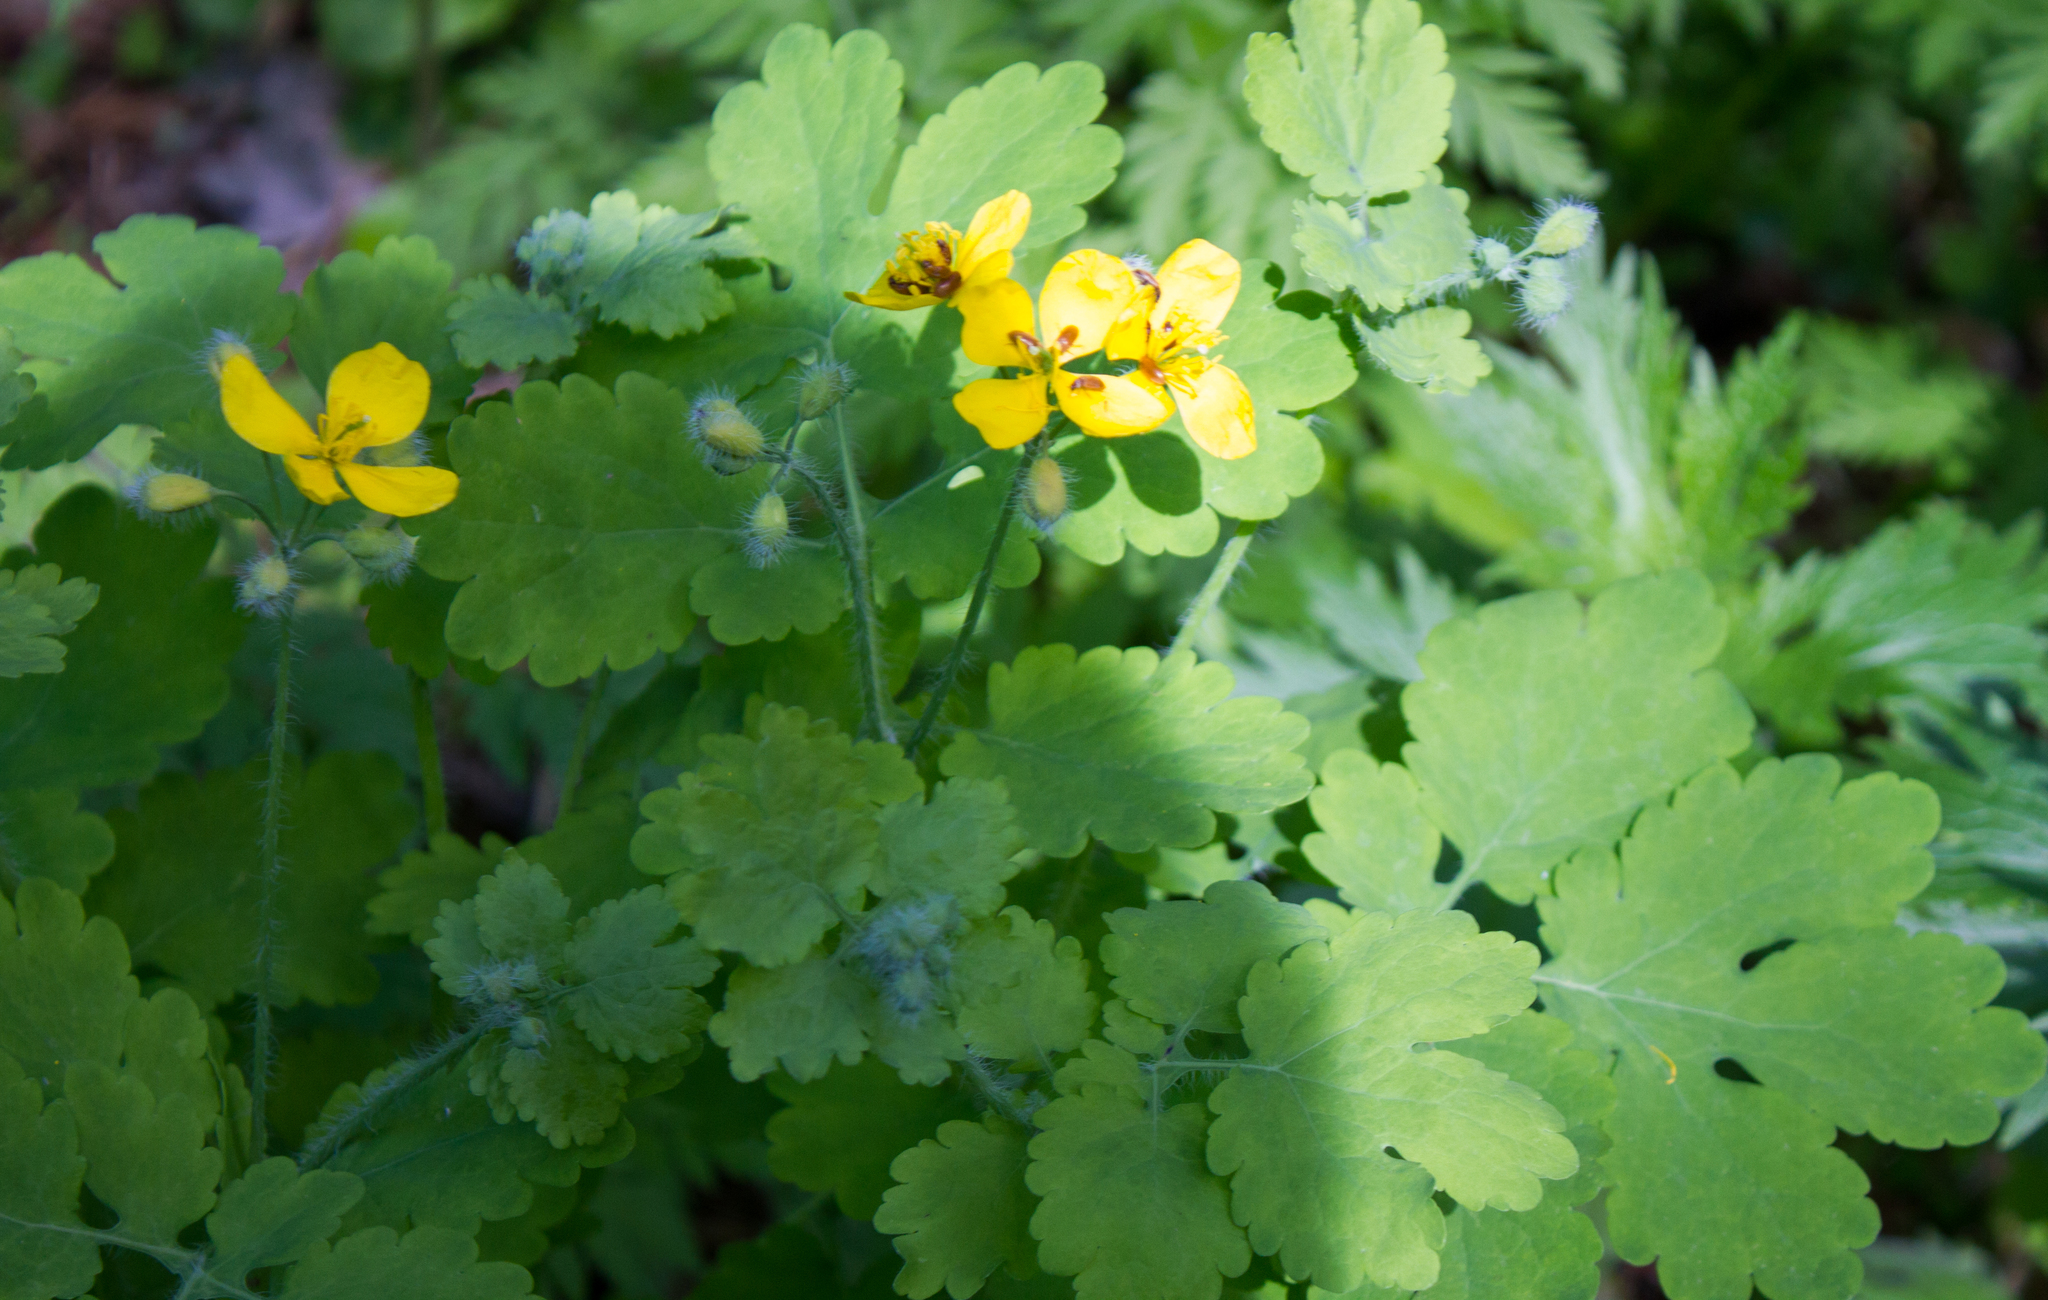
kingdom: Plantae
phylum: Tracheophyta
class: Magnoliopsida
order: Ranunculales
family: Papaveraceae
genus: Chelidonium
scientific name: Chelidonium majus
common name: Greater celandine
